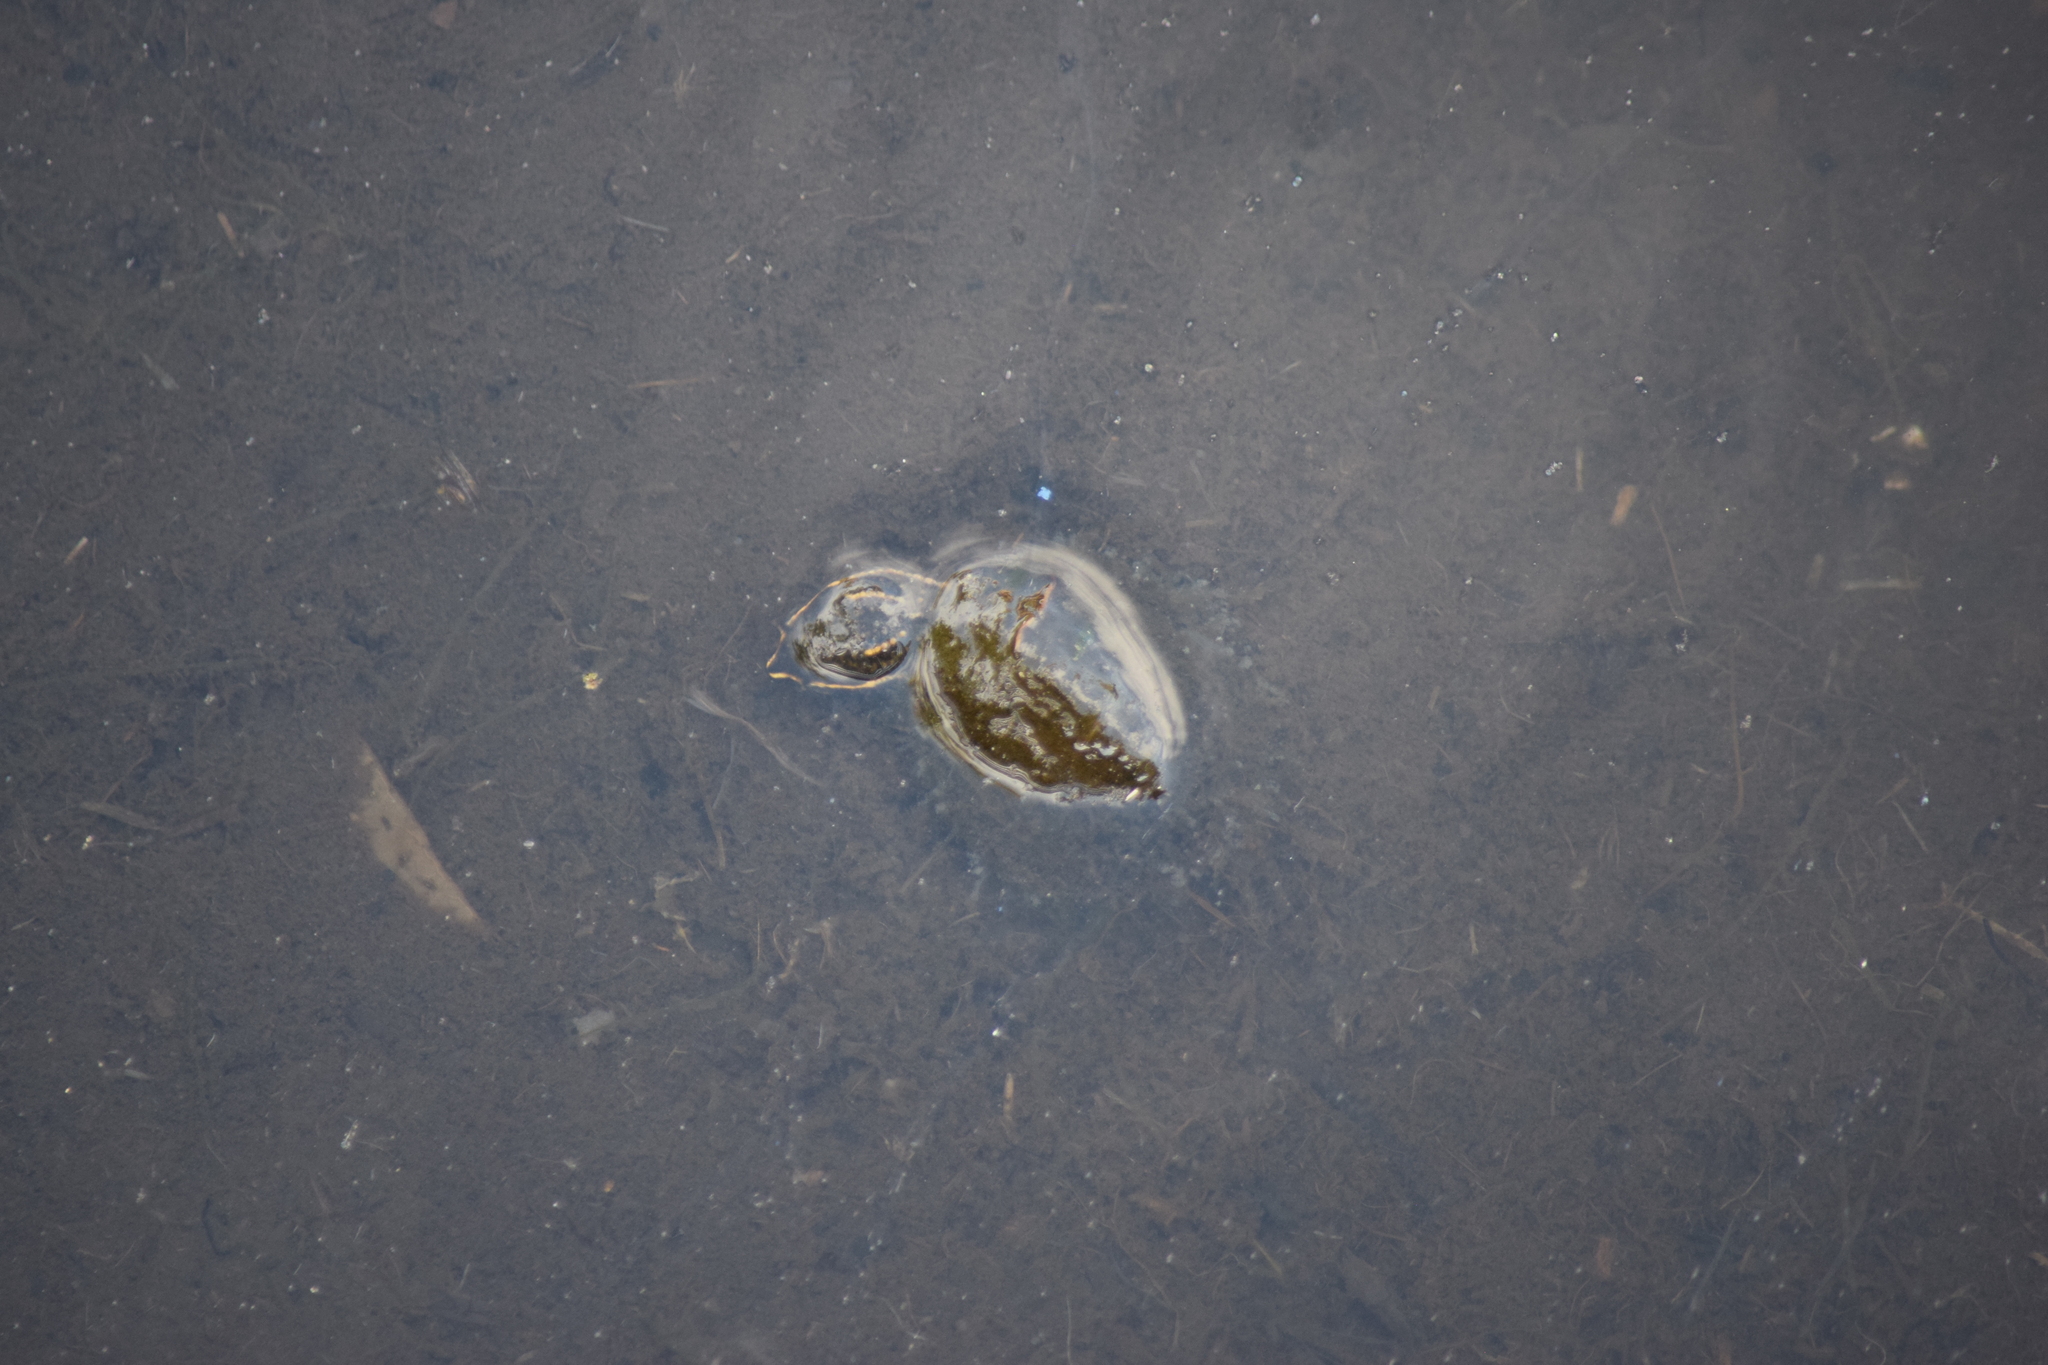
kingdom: Animalia
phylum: Chordata
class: Testudines
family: Kinosternidae
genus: Sternotherus
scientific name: Sternotherus odoratus
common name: Common musk turtle
